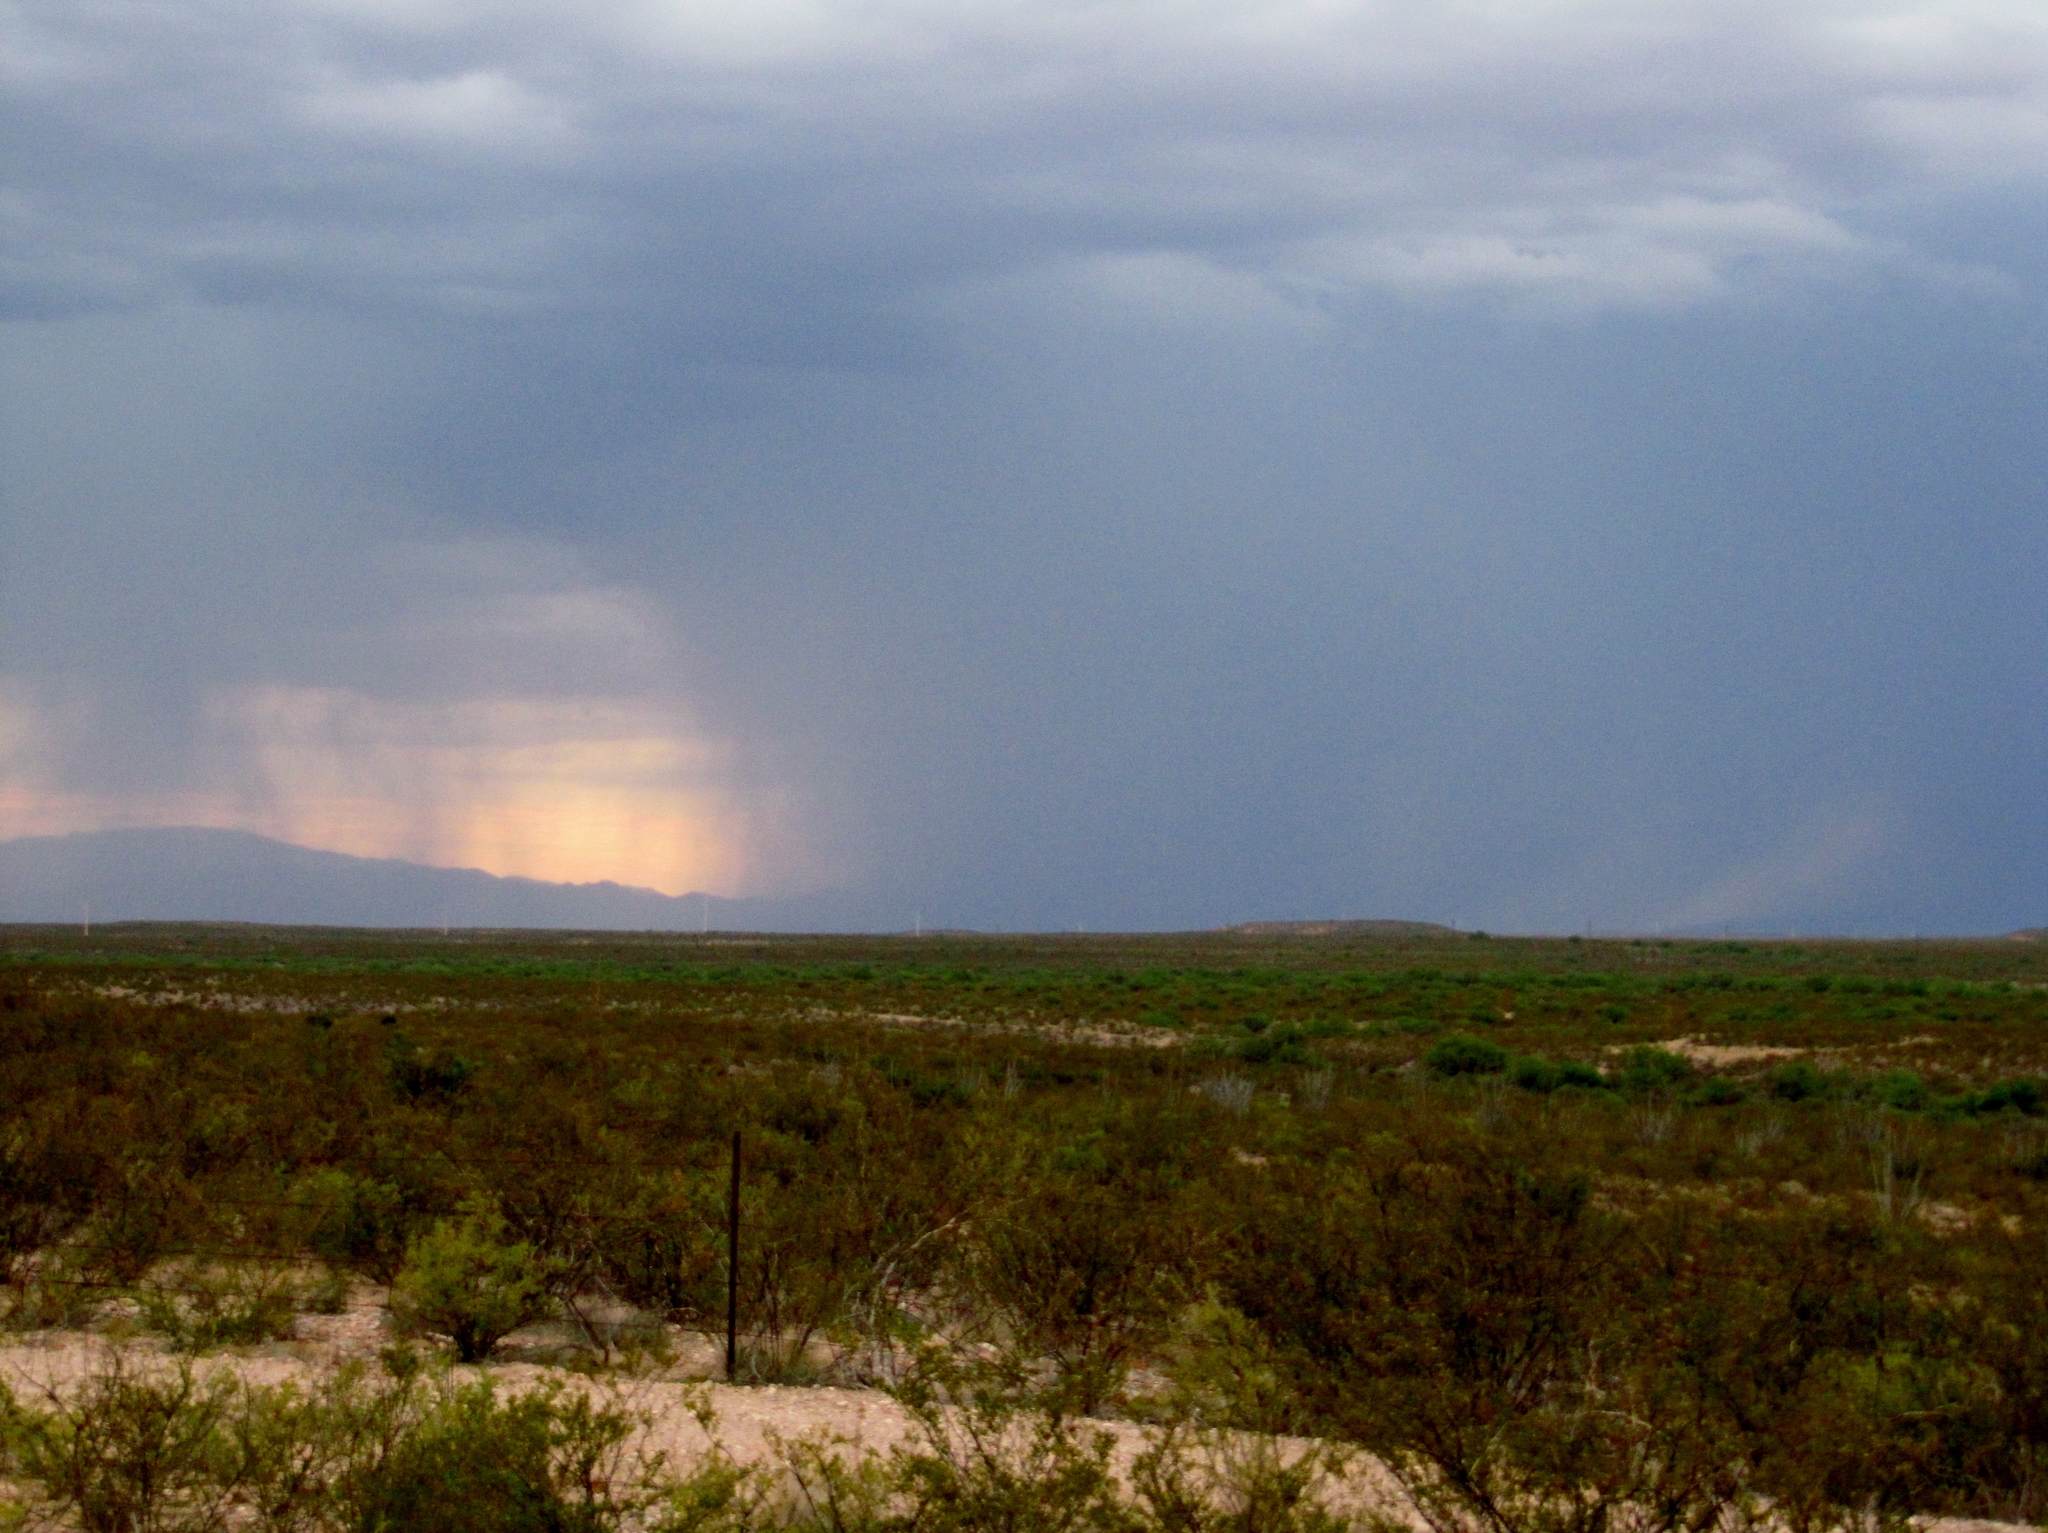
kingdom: Plantae
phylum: Tracheophyta
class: Magnoliopsida
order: Zygophyllales
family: Zygophyllaceae
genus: Larrea
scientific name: Larrea tridentata
